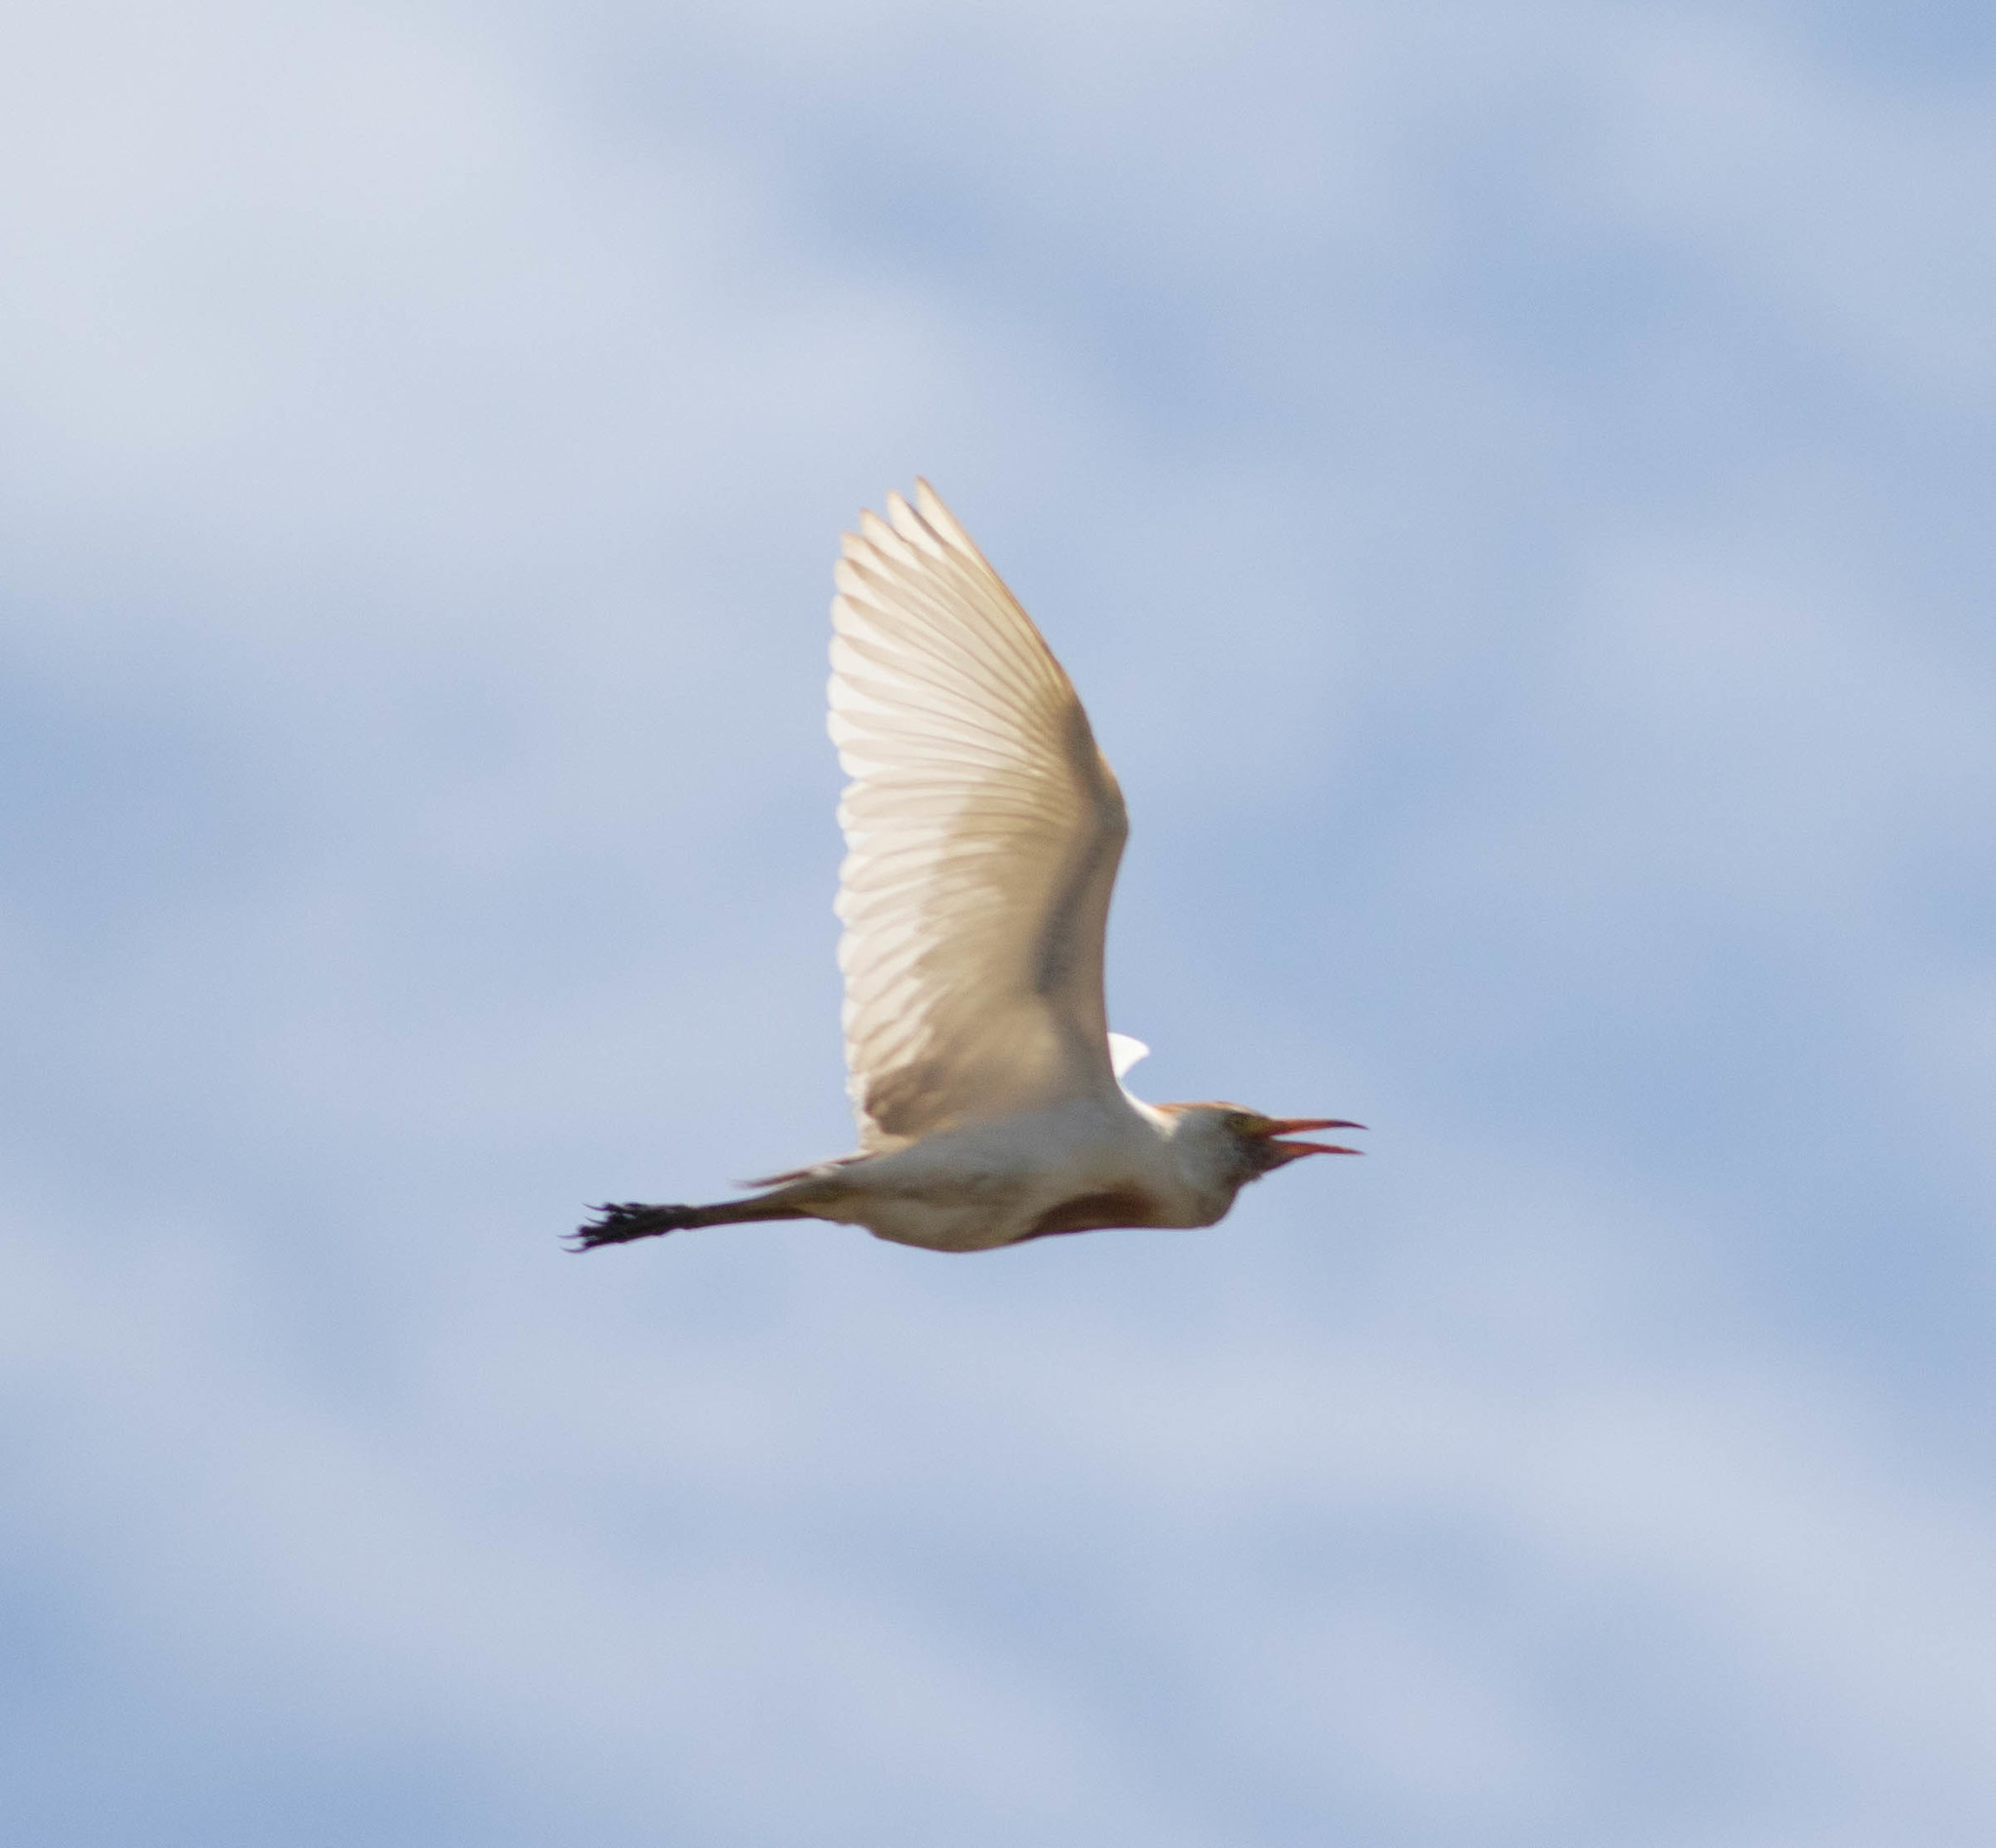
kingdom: Animalia
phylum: Chordata
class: Aves
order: Pelecaniformes
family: Ardeidae
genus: Bubulcus
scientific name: Bubulcus ibis
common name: Cattle egret
